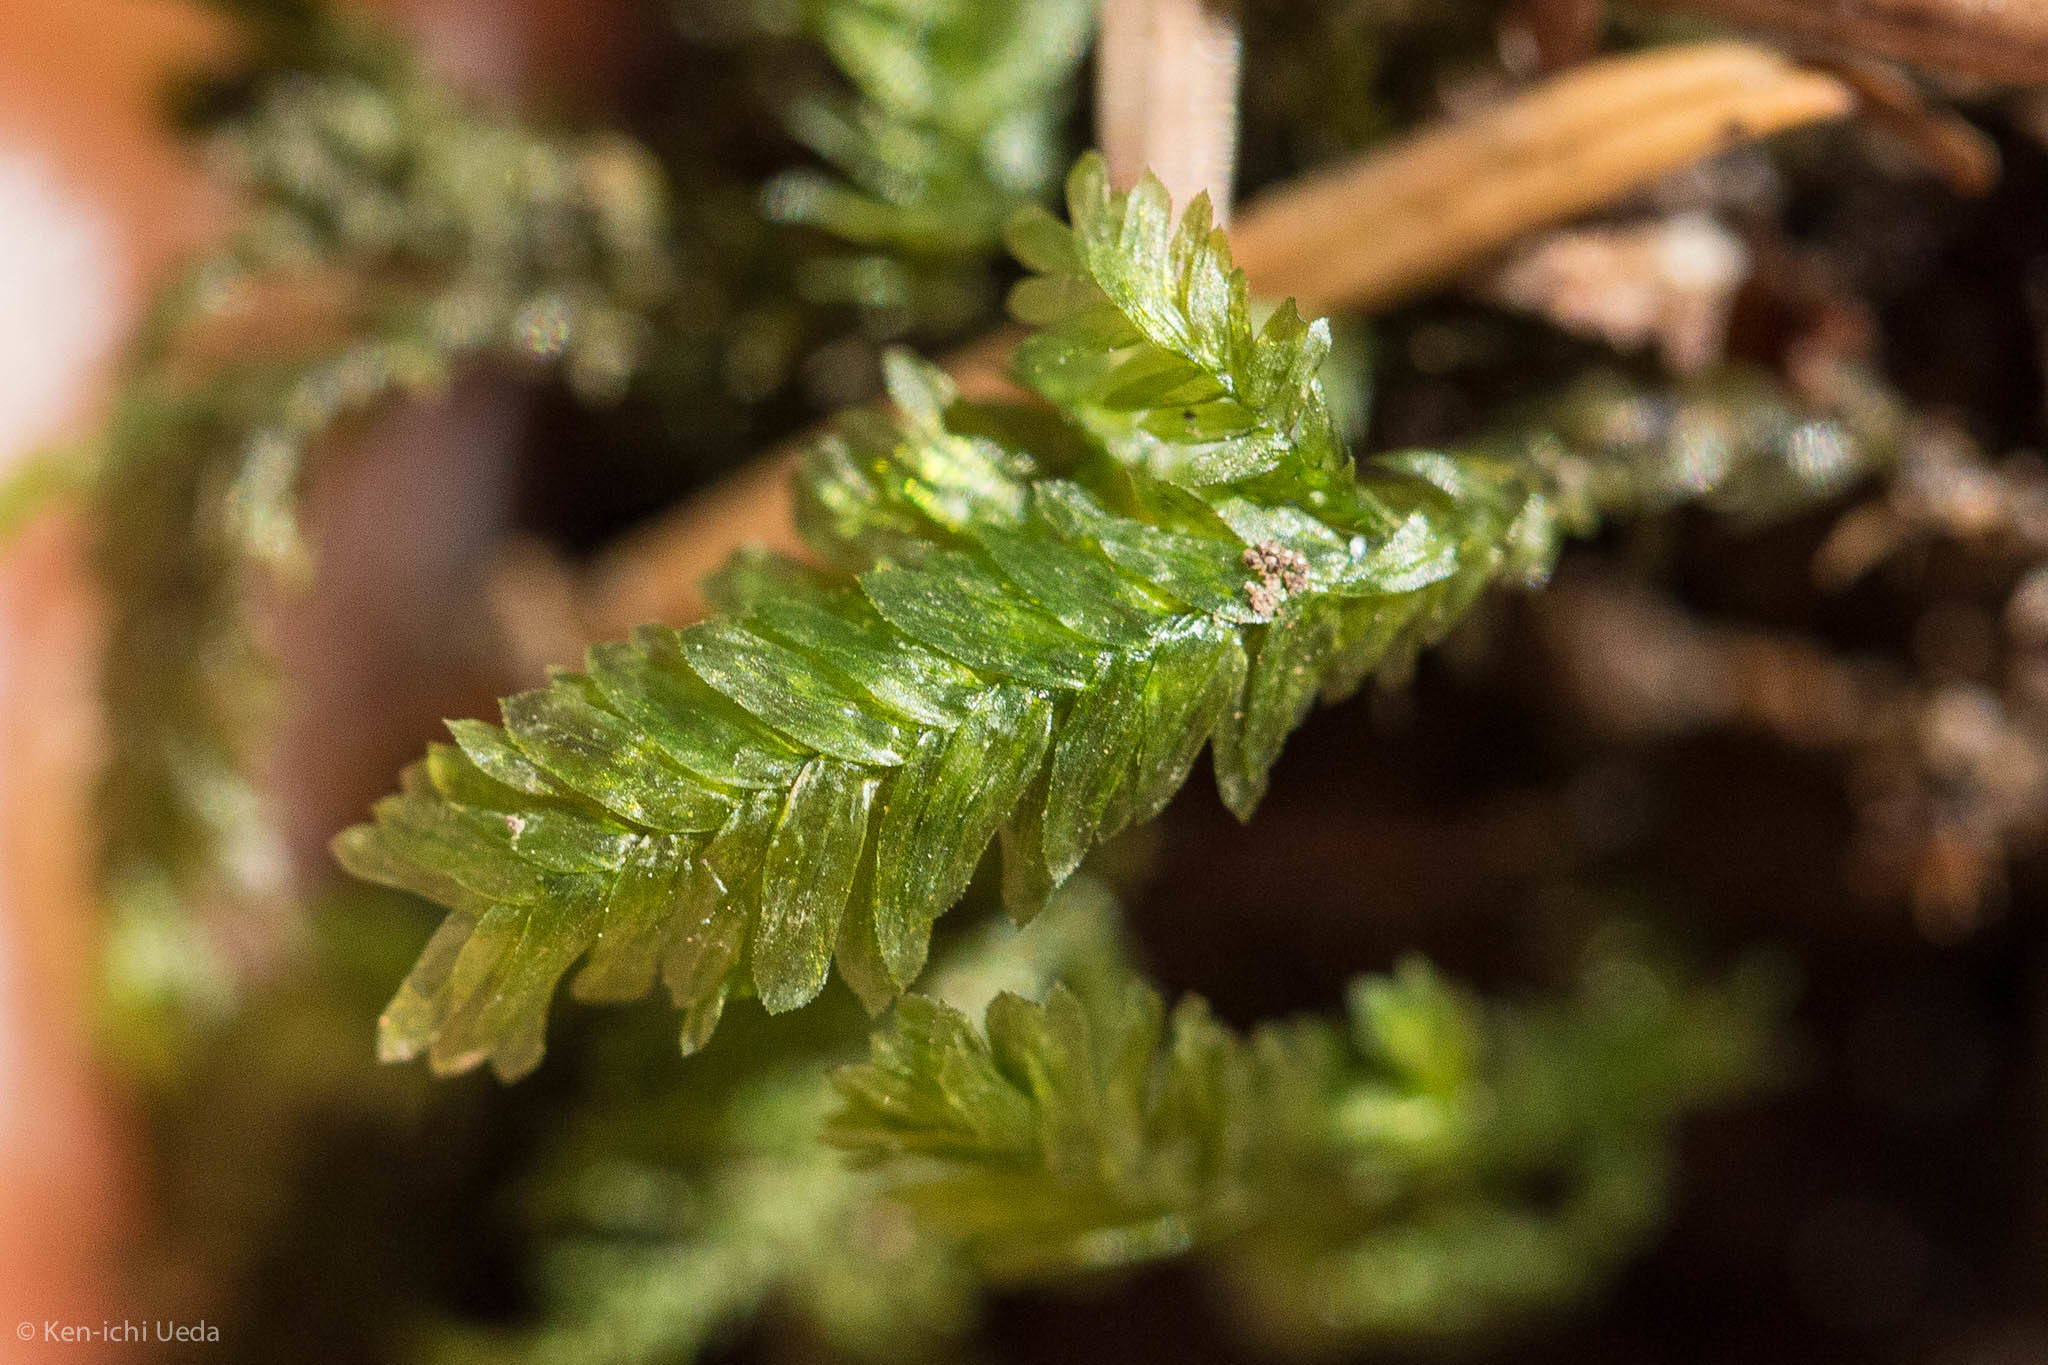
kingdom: Plantae
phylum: Bryophyta
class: Bryopsida
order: Hypnales
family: Neckeraceae
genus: Dannorrisia
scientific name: Dannorrisia bigelovii
